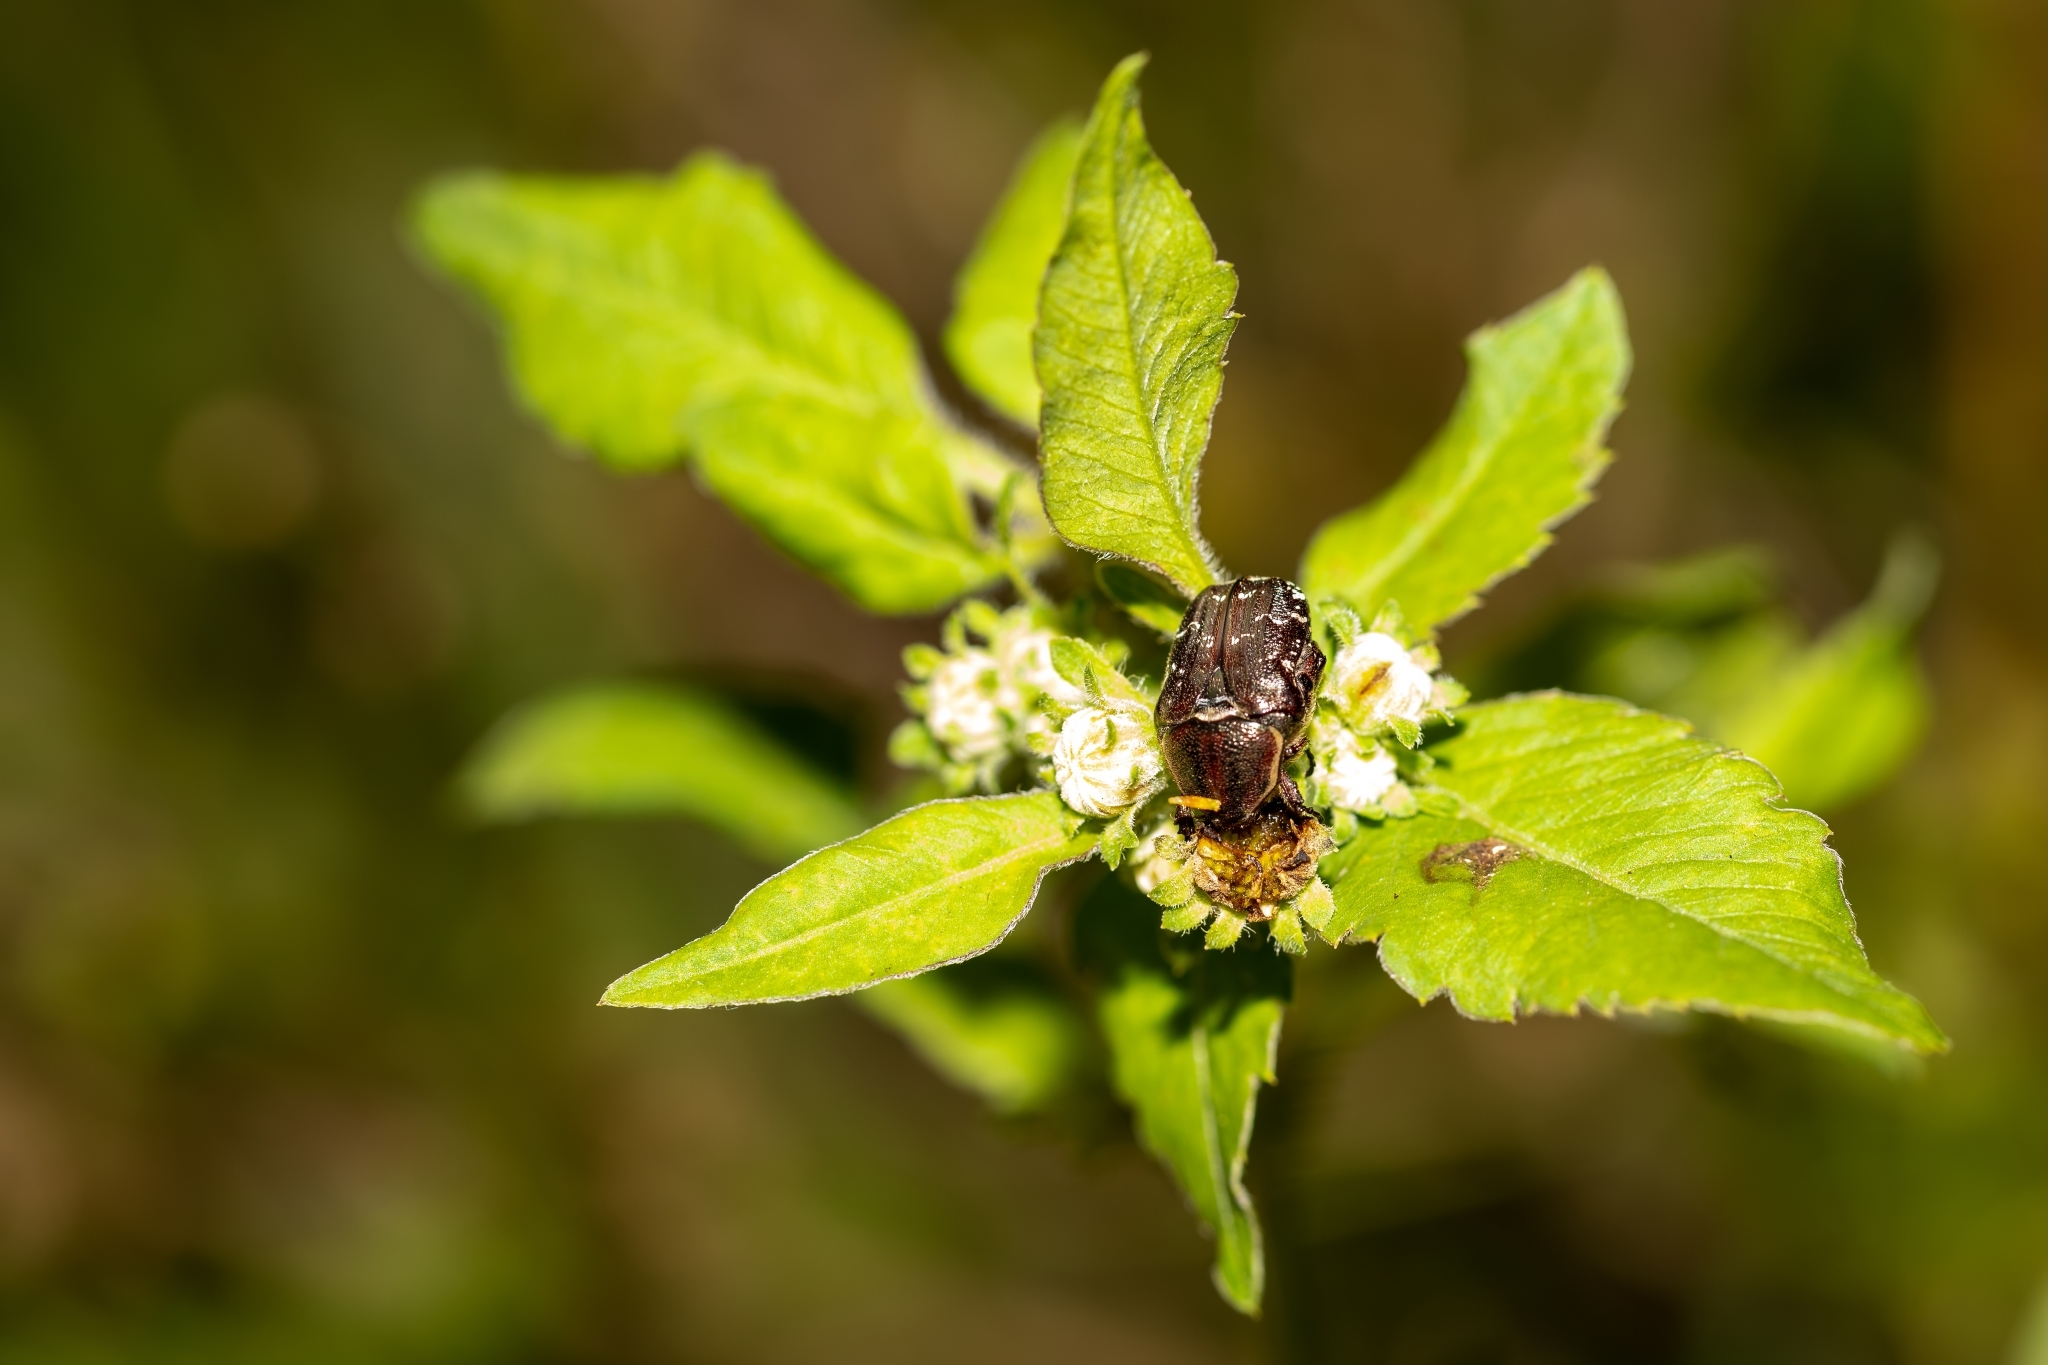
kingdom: Animalia
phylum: Arthropoda
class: Insecta
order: Coleoptera
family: Scarabaeidae
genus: Euphoria
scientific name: Euphoria sepulcralis
